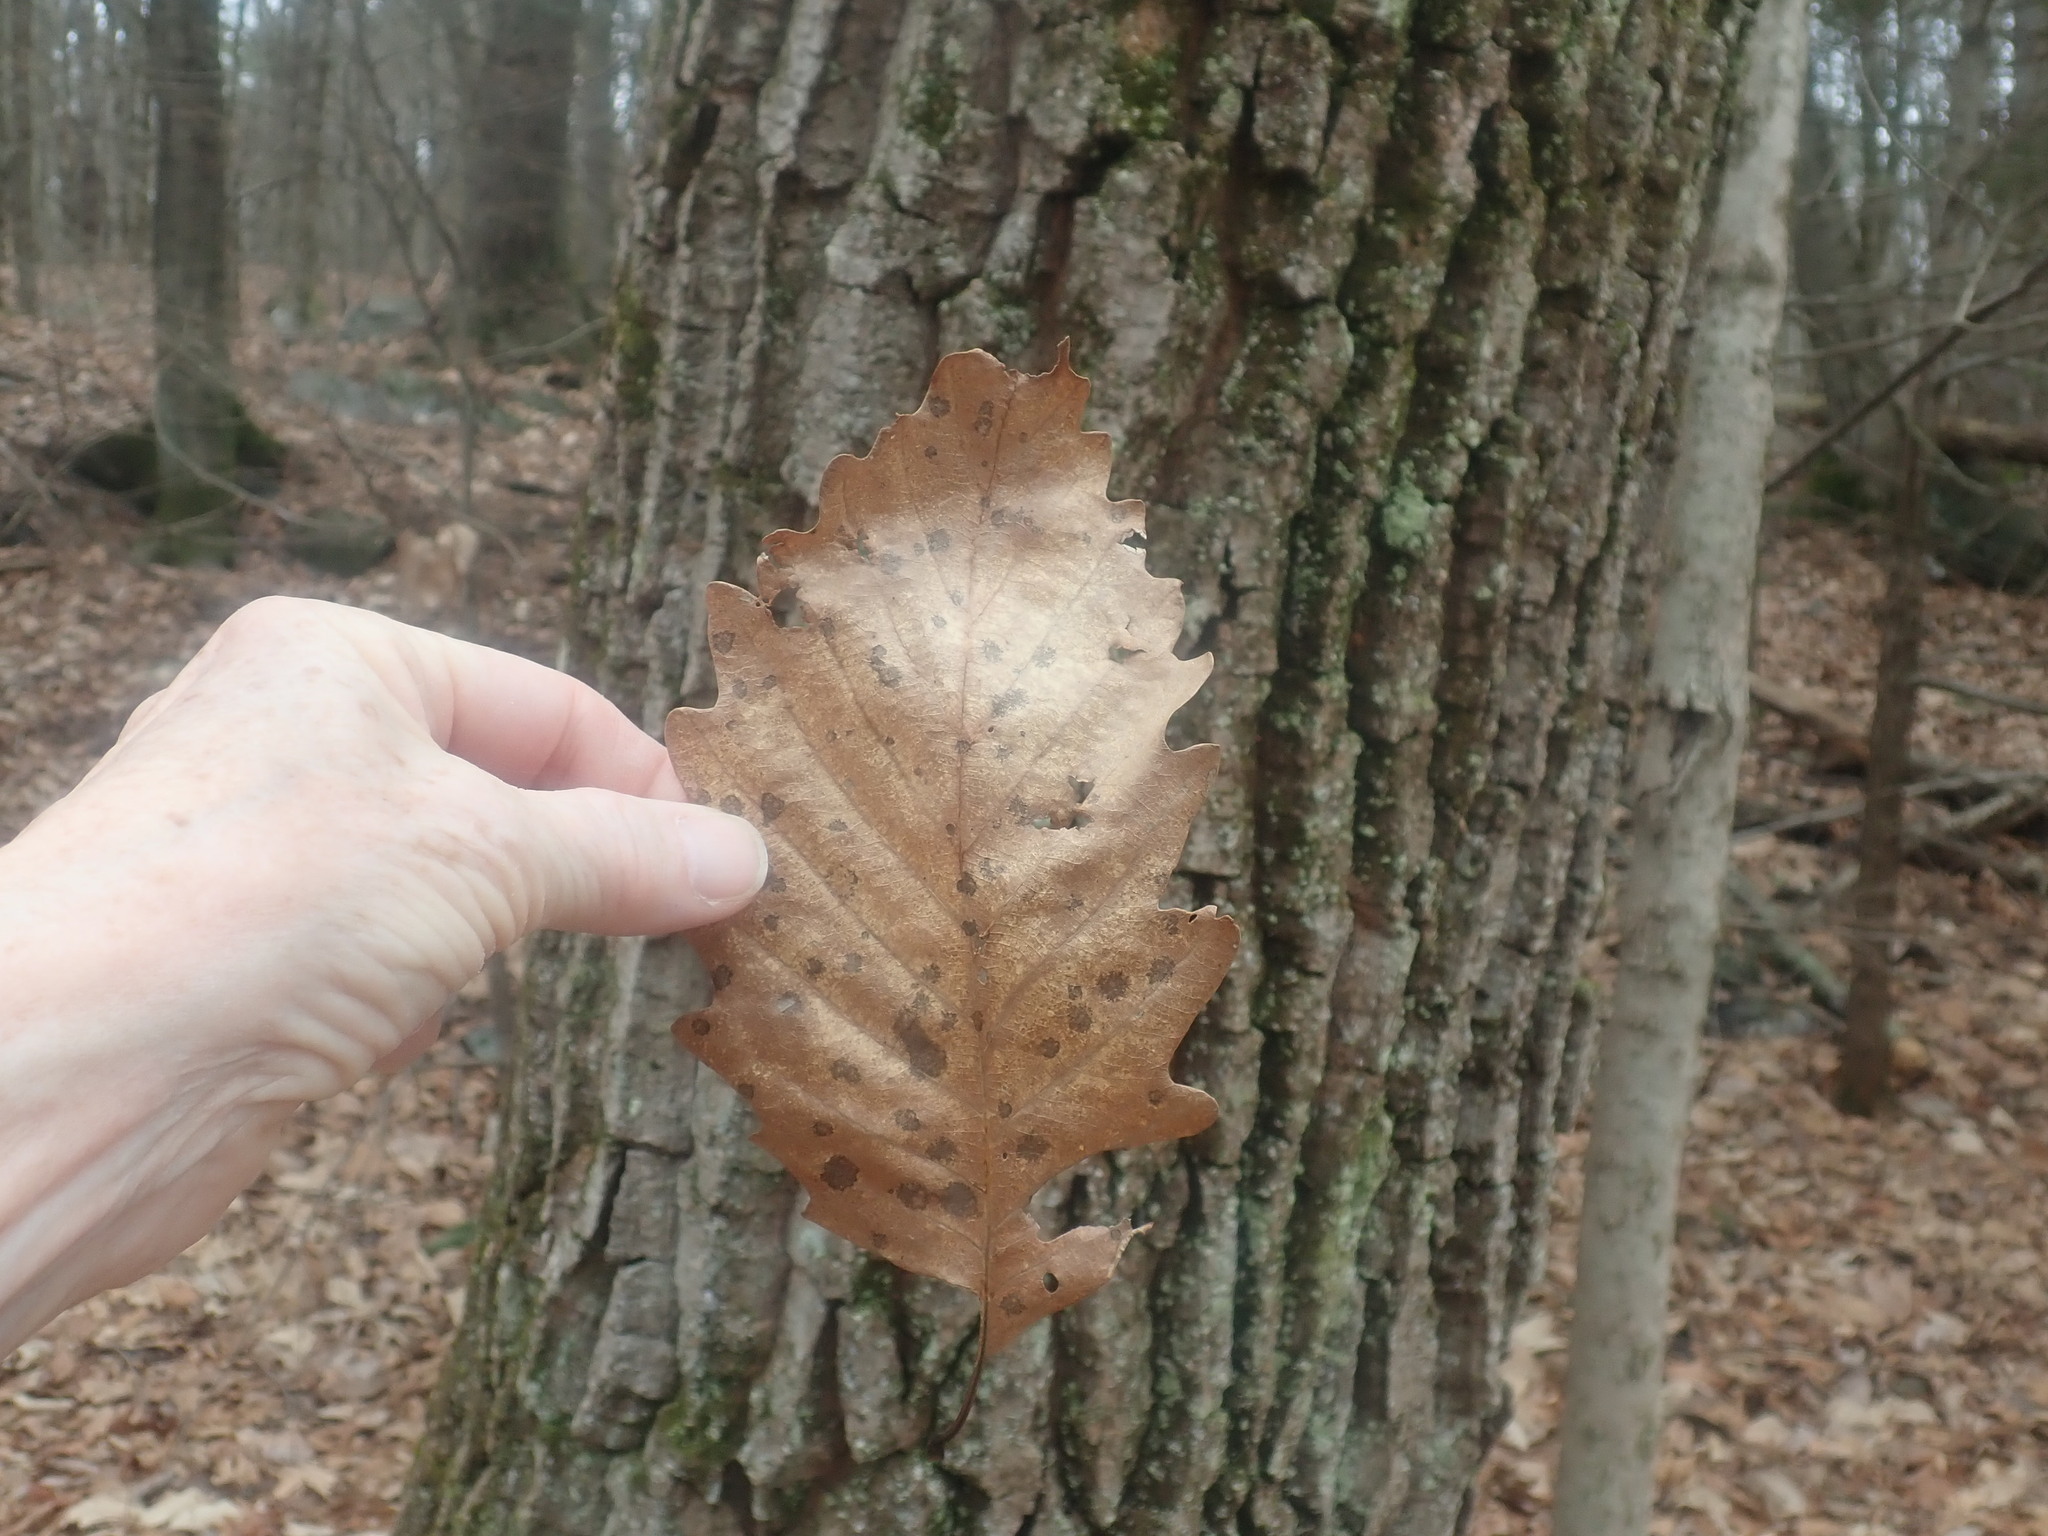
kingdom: Plantae
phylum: Tracheophyta
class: Magnoliopsida
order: Fagales
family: Fagaceae
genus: Quercus
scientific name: Quercus montana
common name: Chestnut oak
